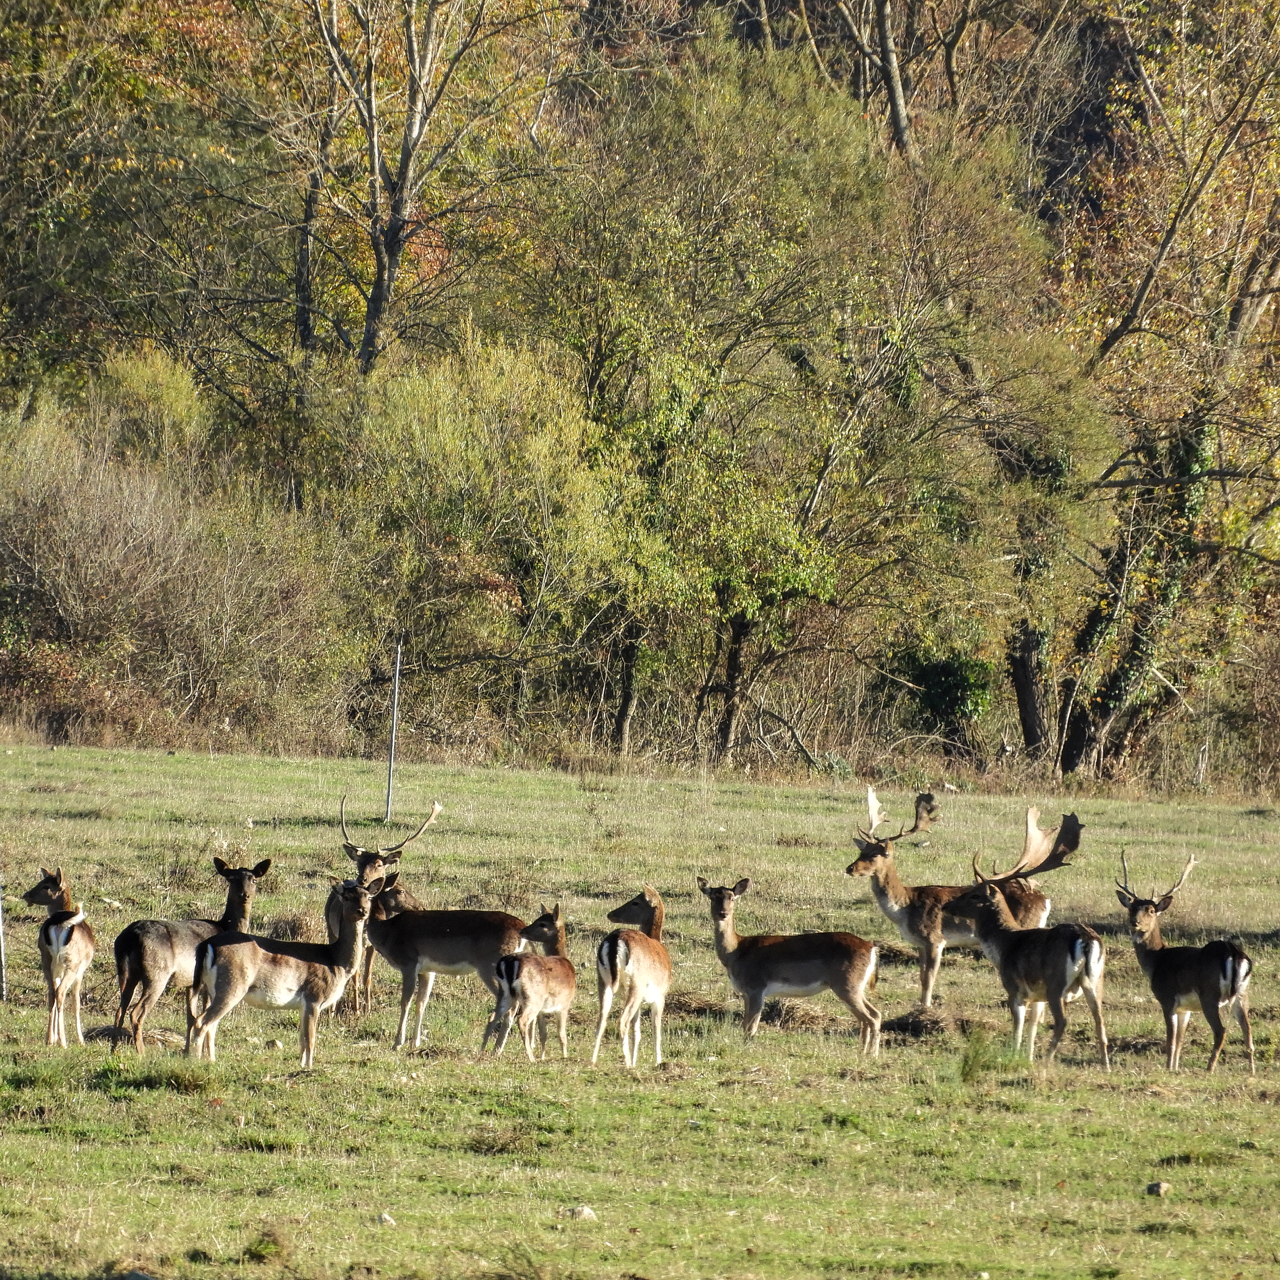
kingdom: Animalia
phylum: Chordata
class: Mammalia
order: Artiodactyla
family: Cervidae
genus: Dama
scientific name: Dama dama
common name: Fallow deer
